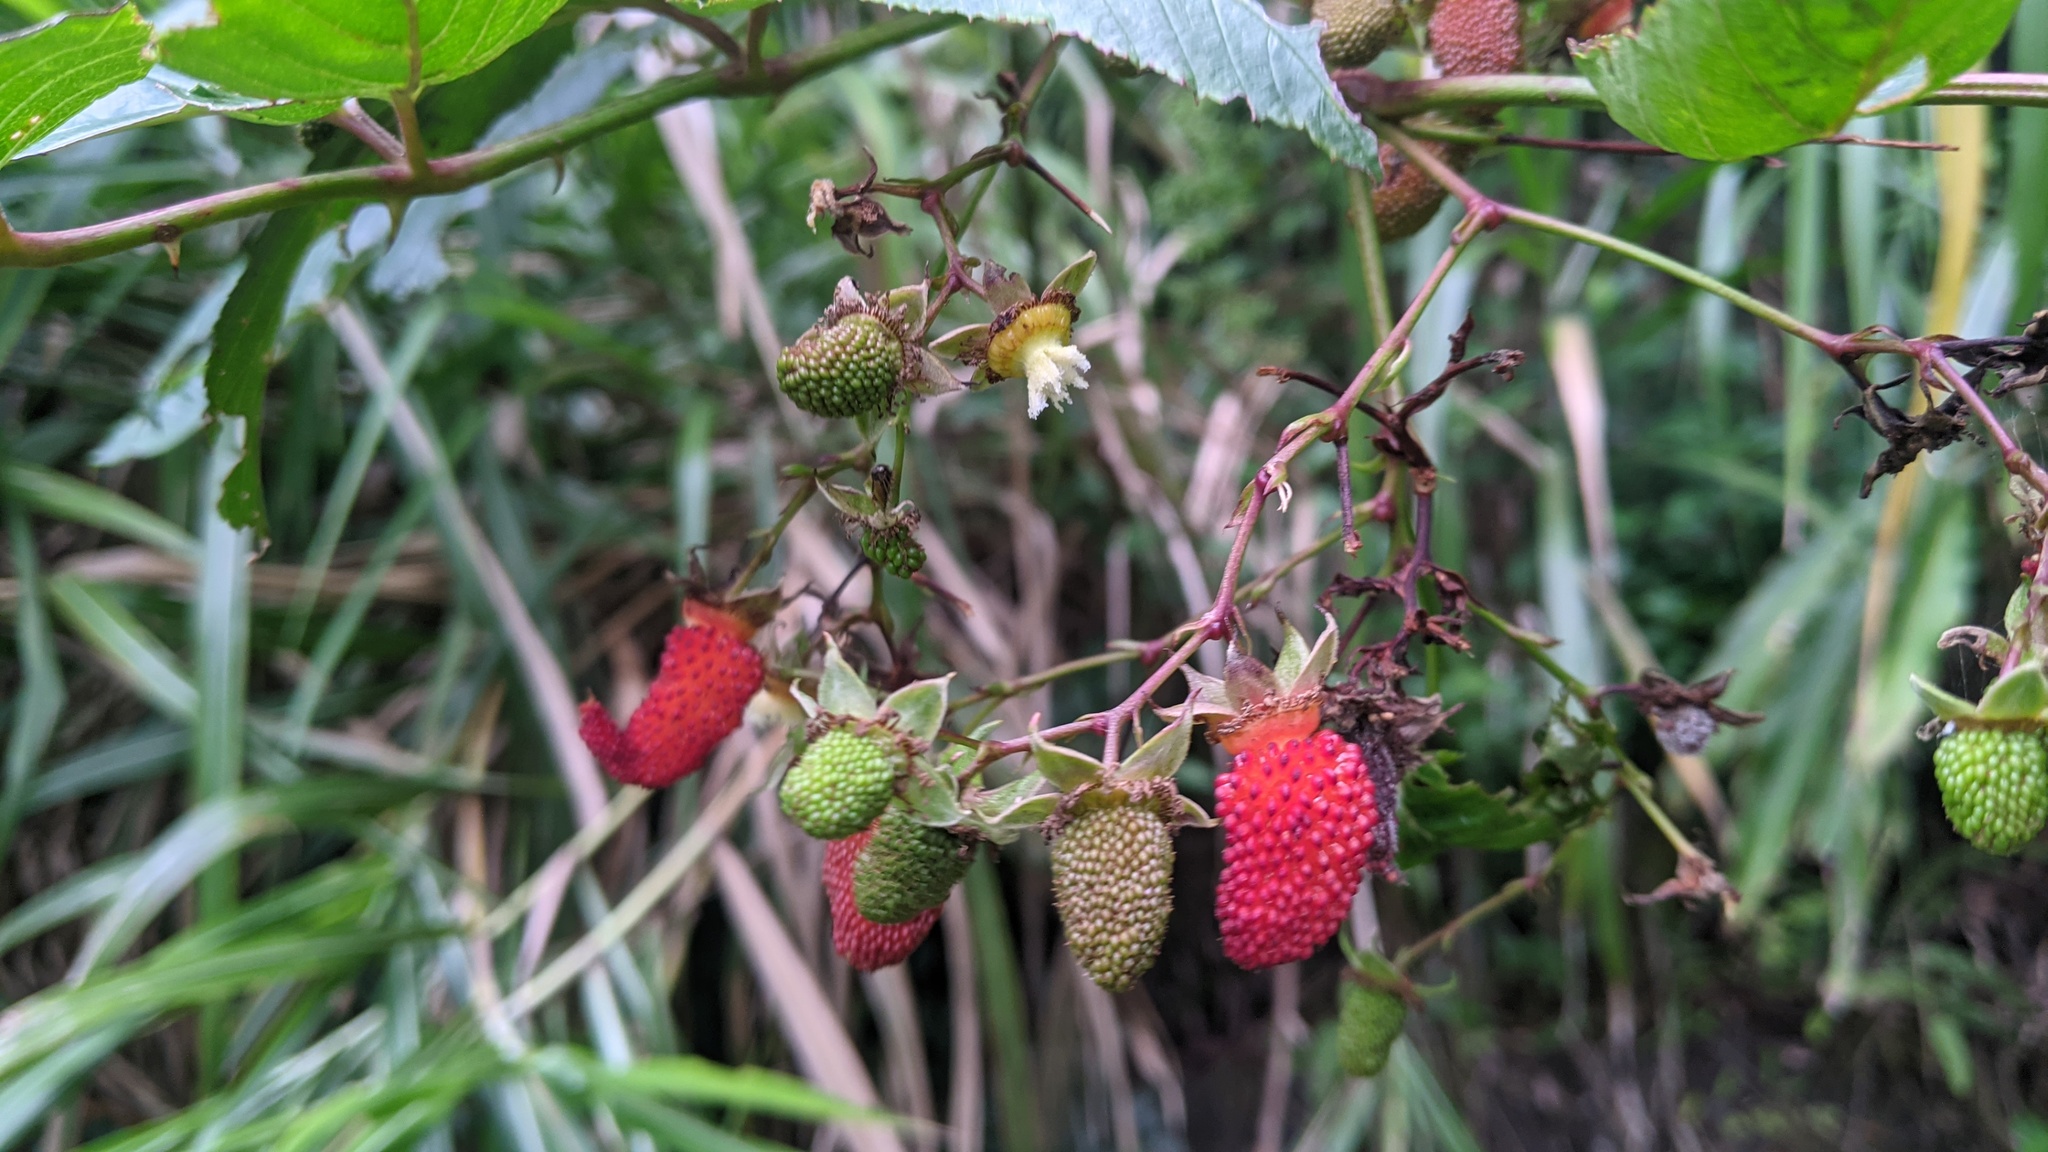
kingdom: Plantae
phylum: Tracheophyta
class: Magnoliopsida
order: Rosales
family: Rosaceae
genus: Rubus
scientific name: Rubus fraxinifolius
